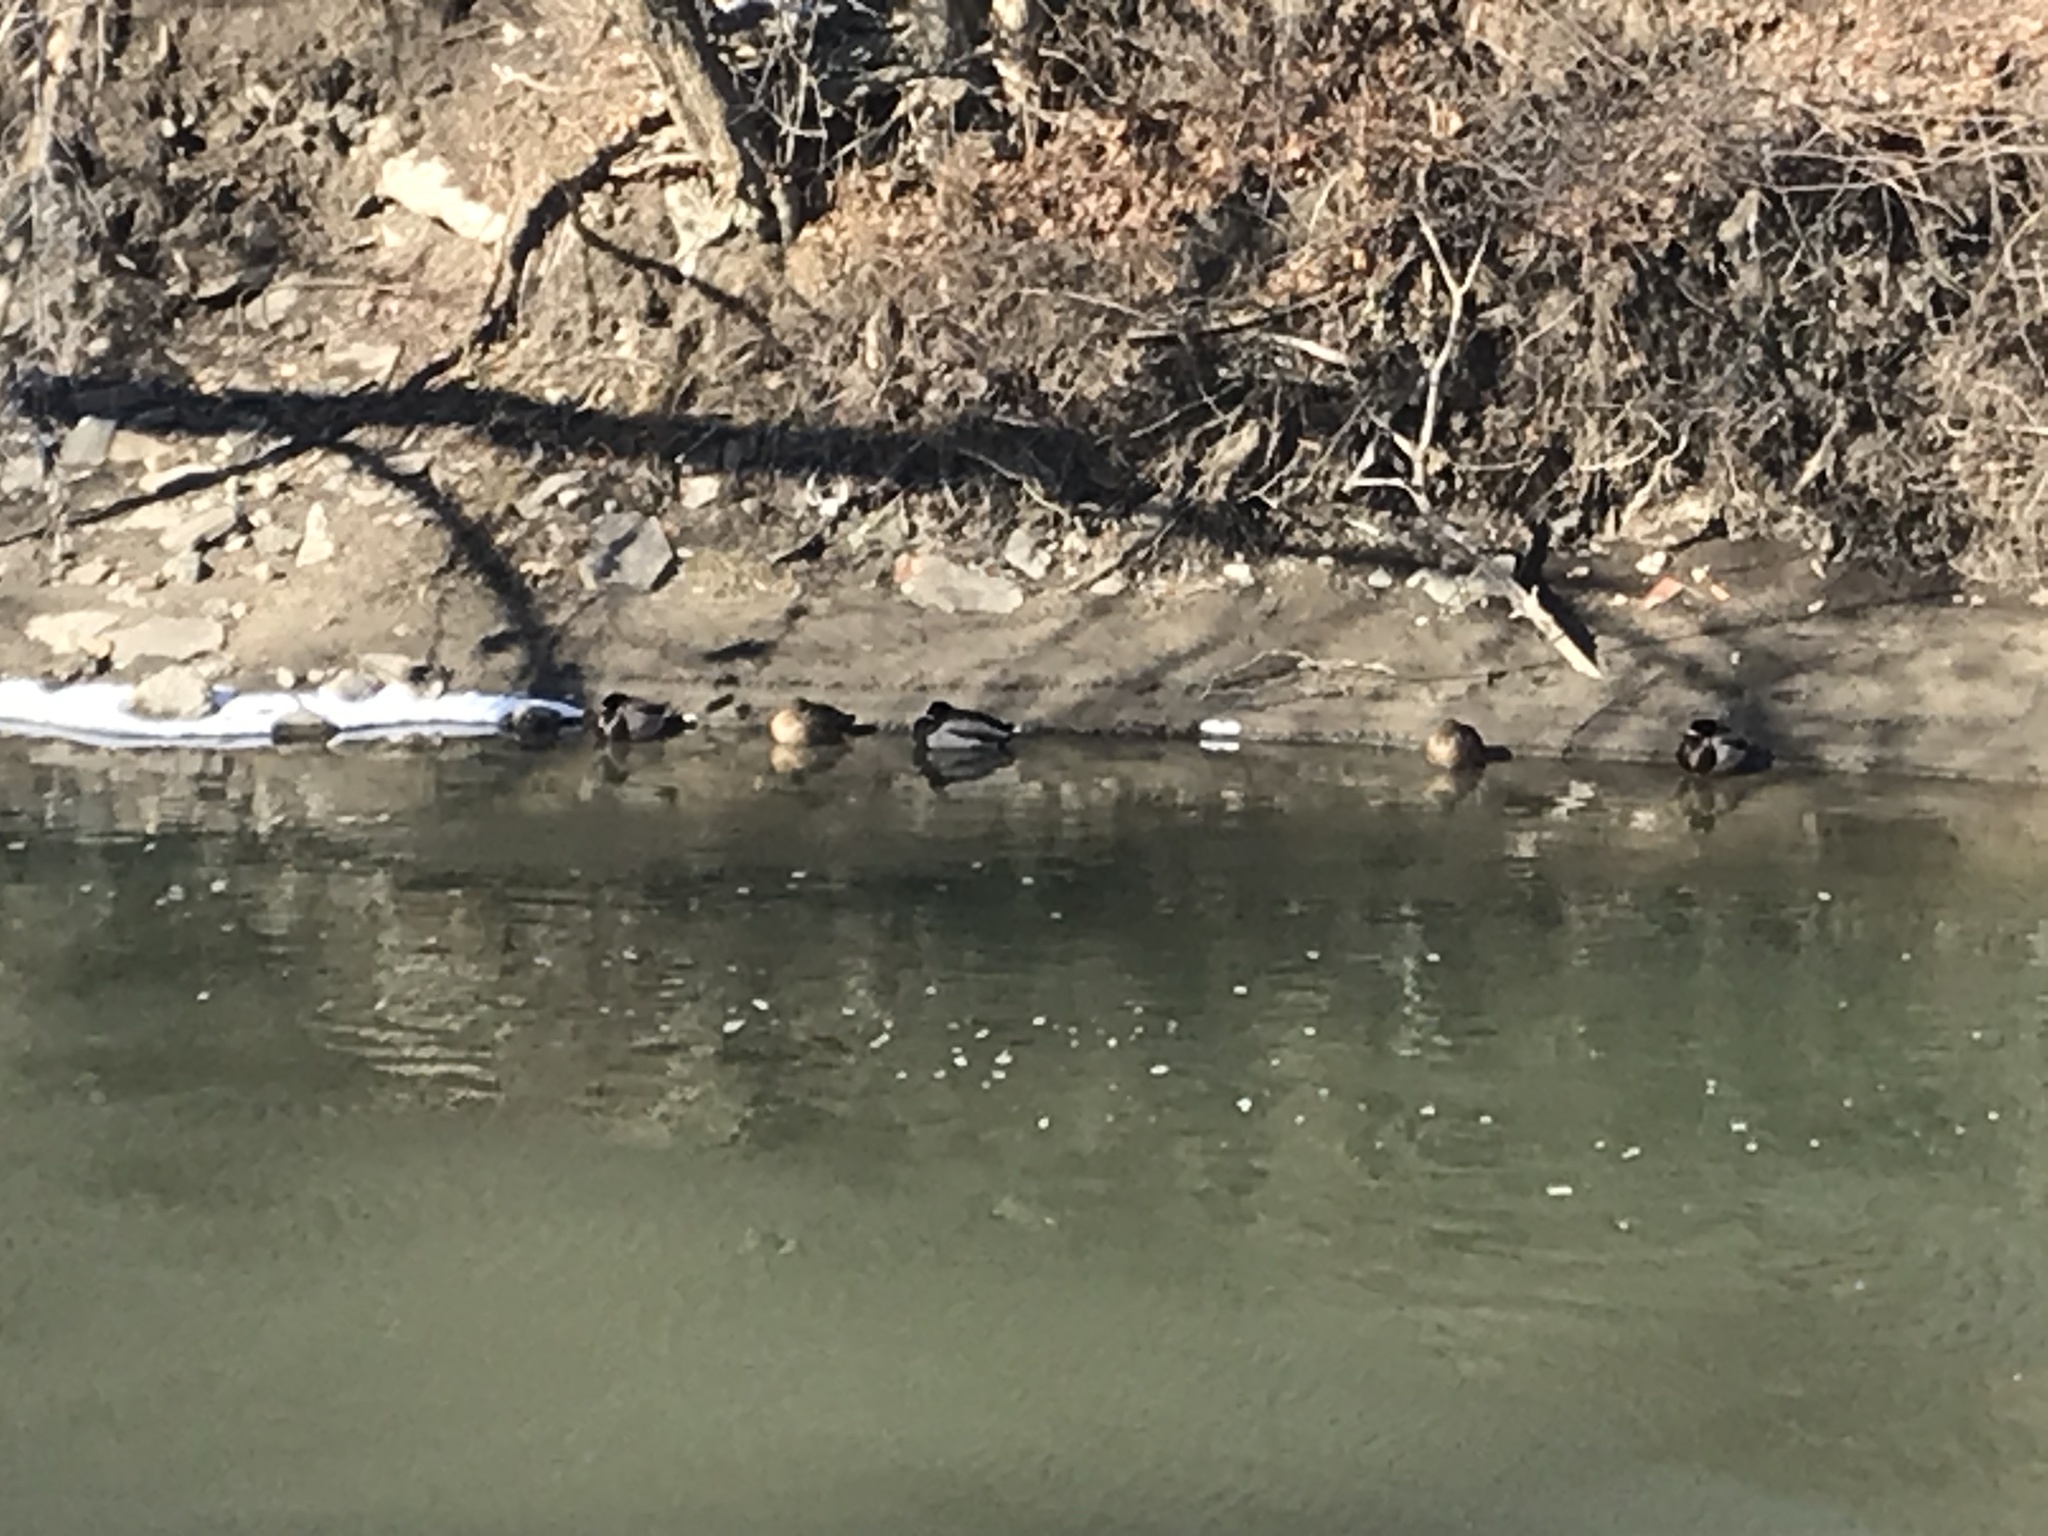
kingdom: Animalia
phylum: Chordata
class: Aves
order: Anseriformes
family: Anatidae
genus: Anas
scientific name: Anas platyrhynchos
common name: Mallard
